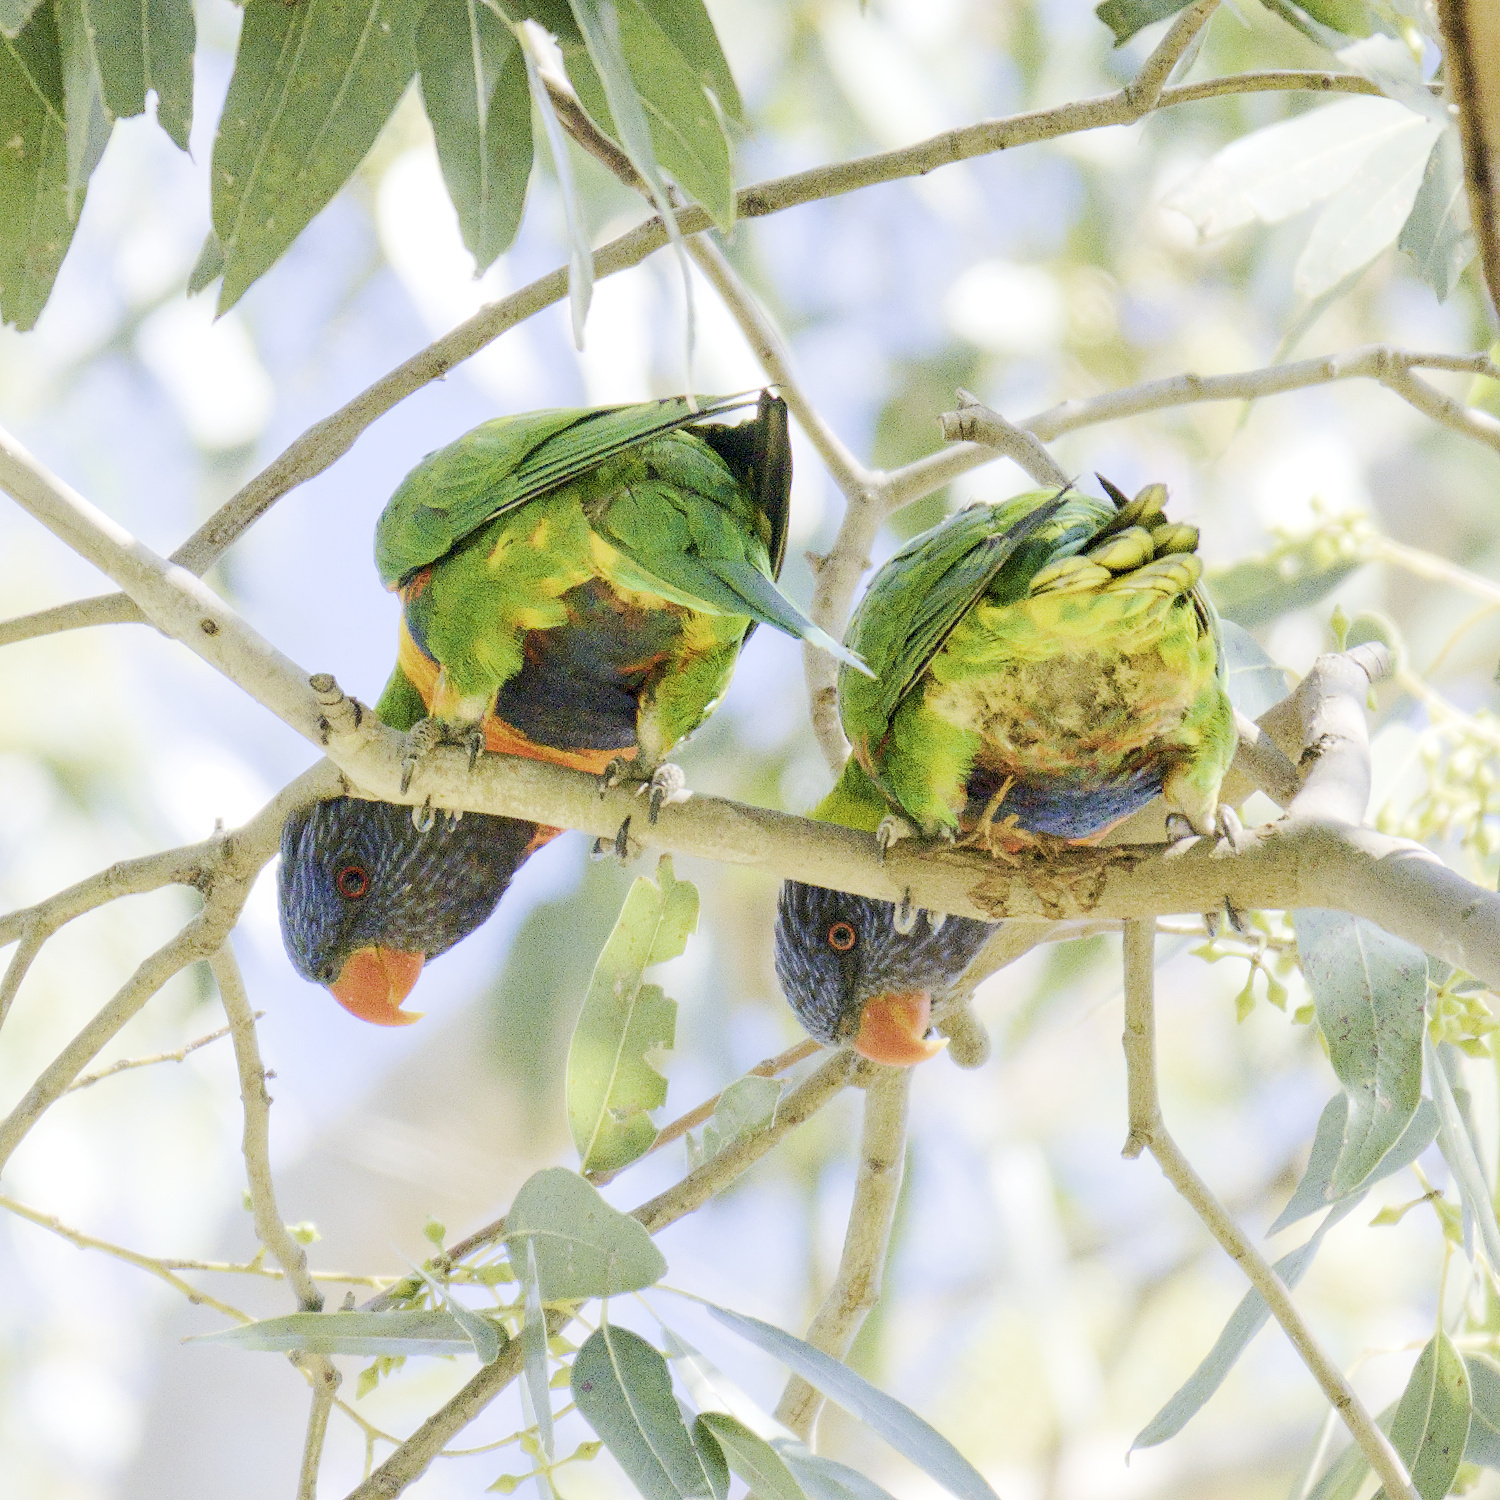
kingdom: Animalia
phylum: Chordata
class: Aves
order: Psittaciformes
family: Psittacidae
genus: Trichoglossus
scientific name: Trichoglossus haematodus
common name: Coconut lorikeet
